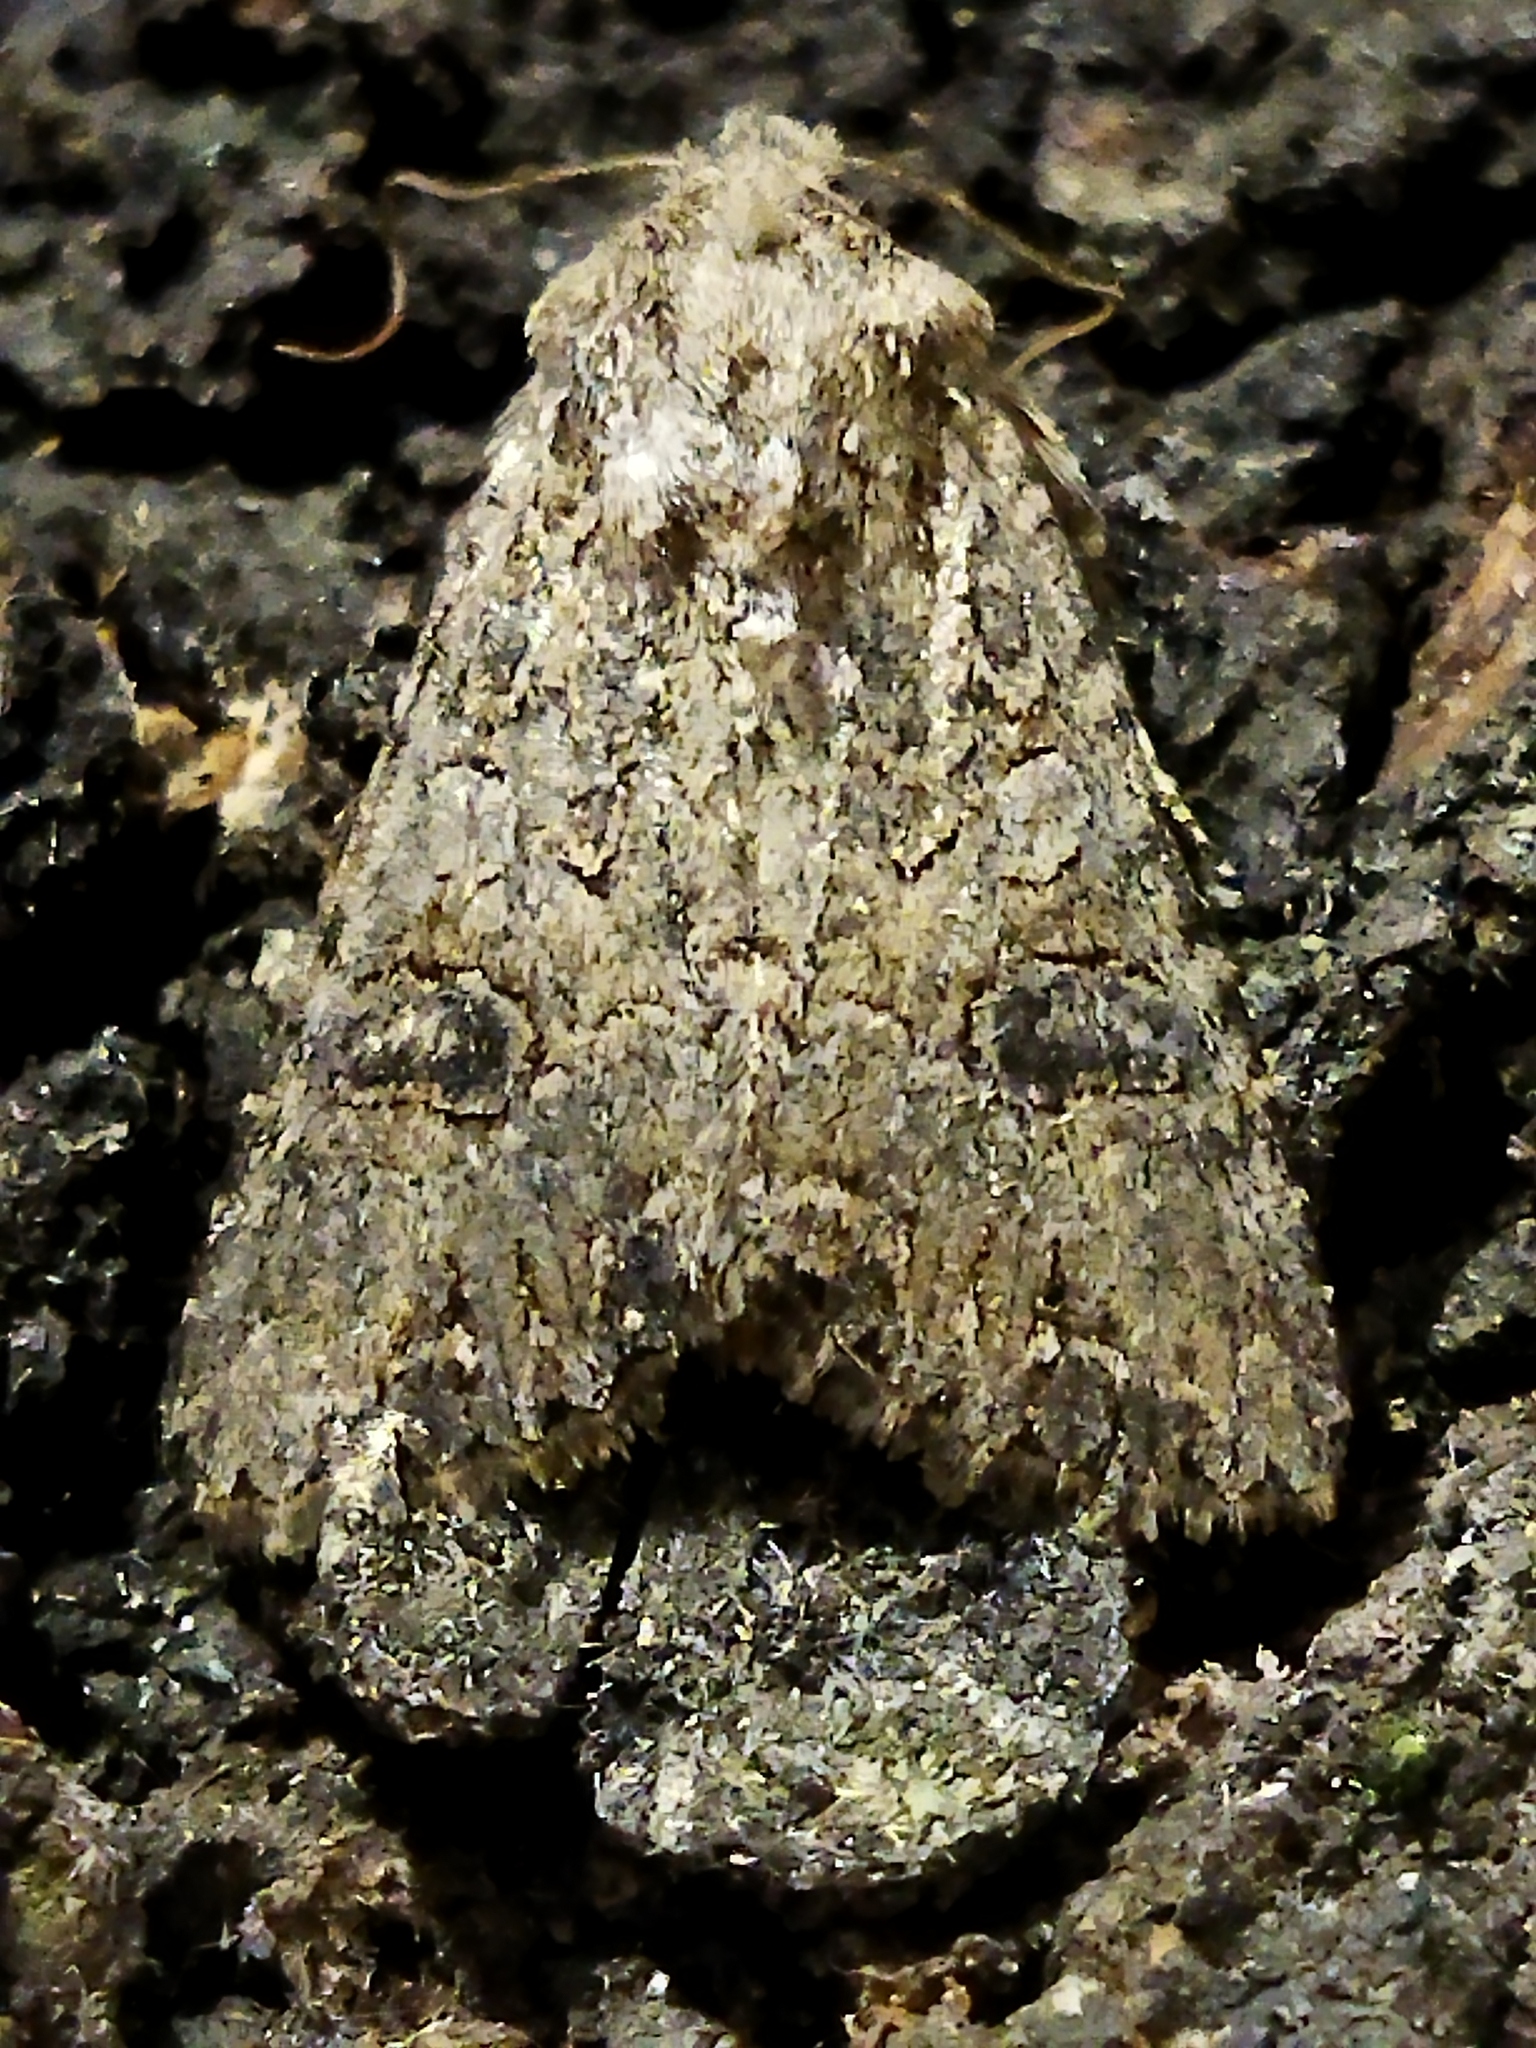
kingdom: Animalia
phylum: Arthropoda
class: Insecta
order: Lepidoptera
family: Noctuidae
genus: Anarta
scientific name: Anarta trifolii
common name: Clover cutworm moth
